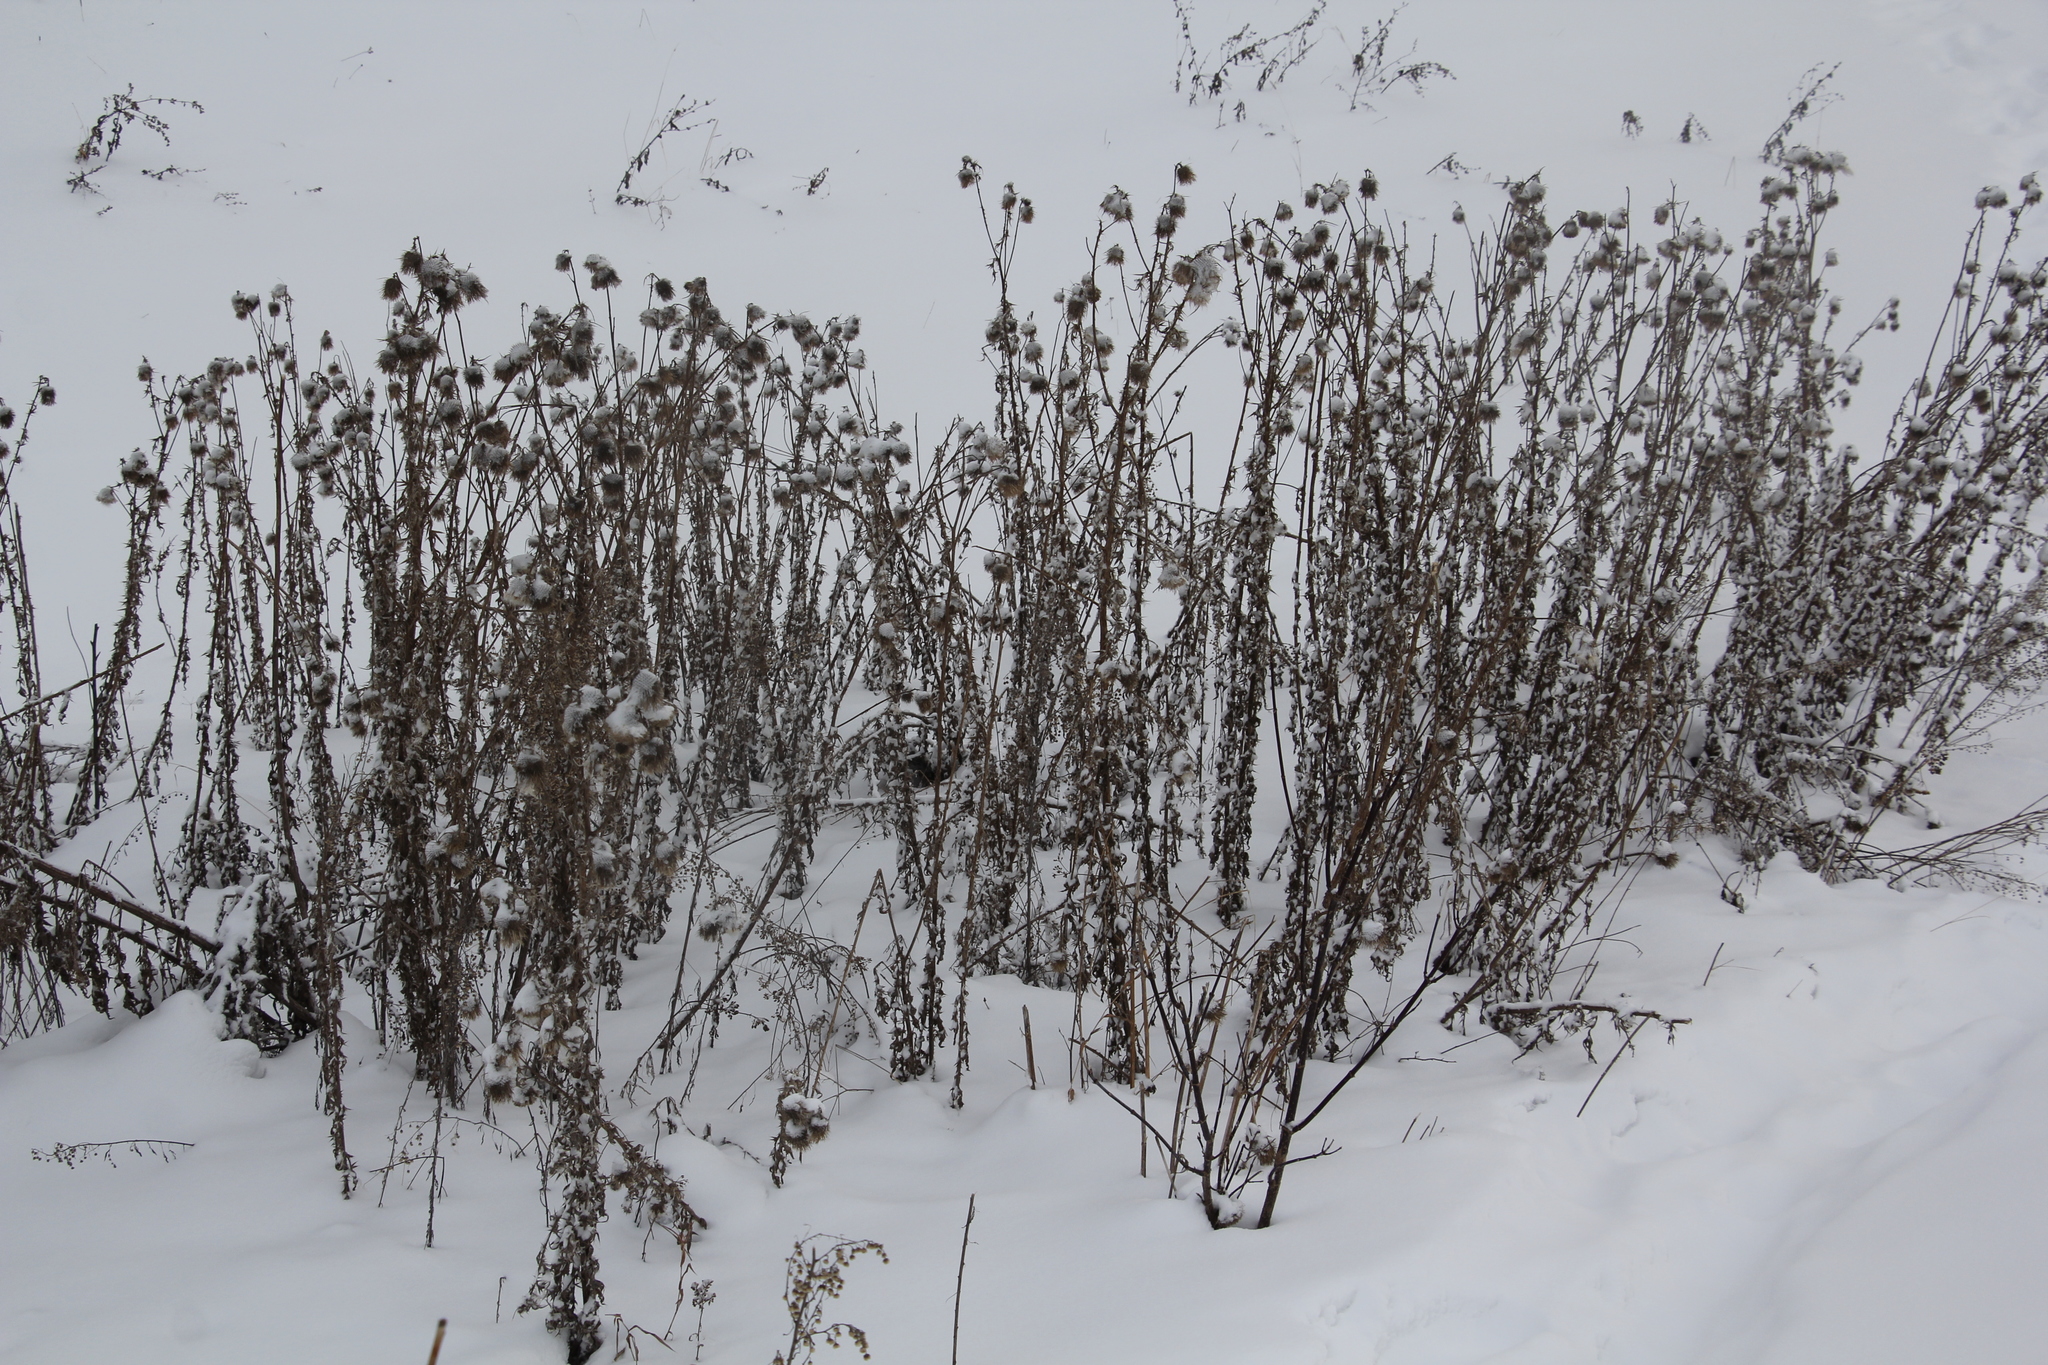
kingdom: Plantae
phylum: Tracheophyta
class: Magnoliopsida
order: Asterales
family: Asteraceae
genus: Cirsium
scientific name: Cirsium vulgare
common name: Bull thistle
